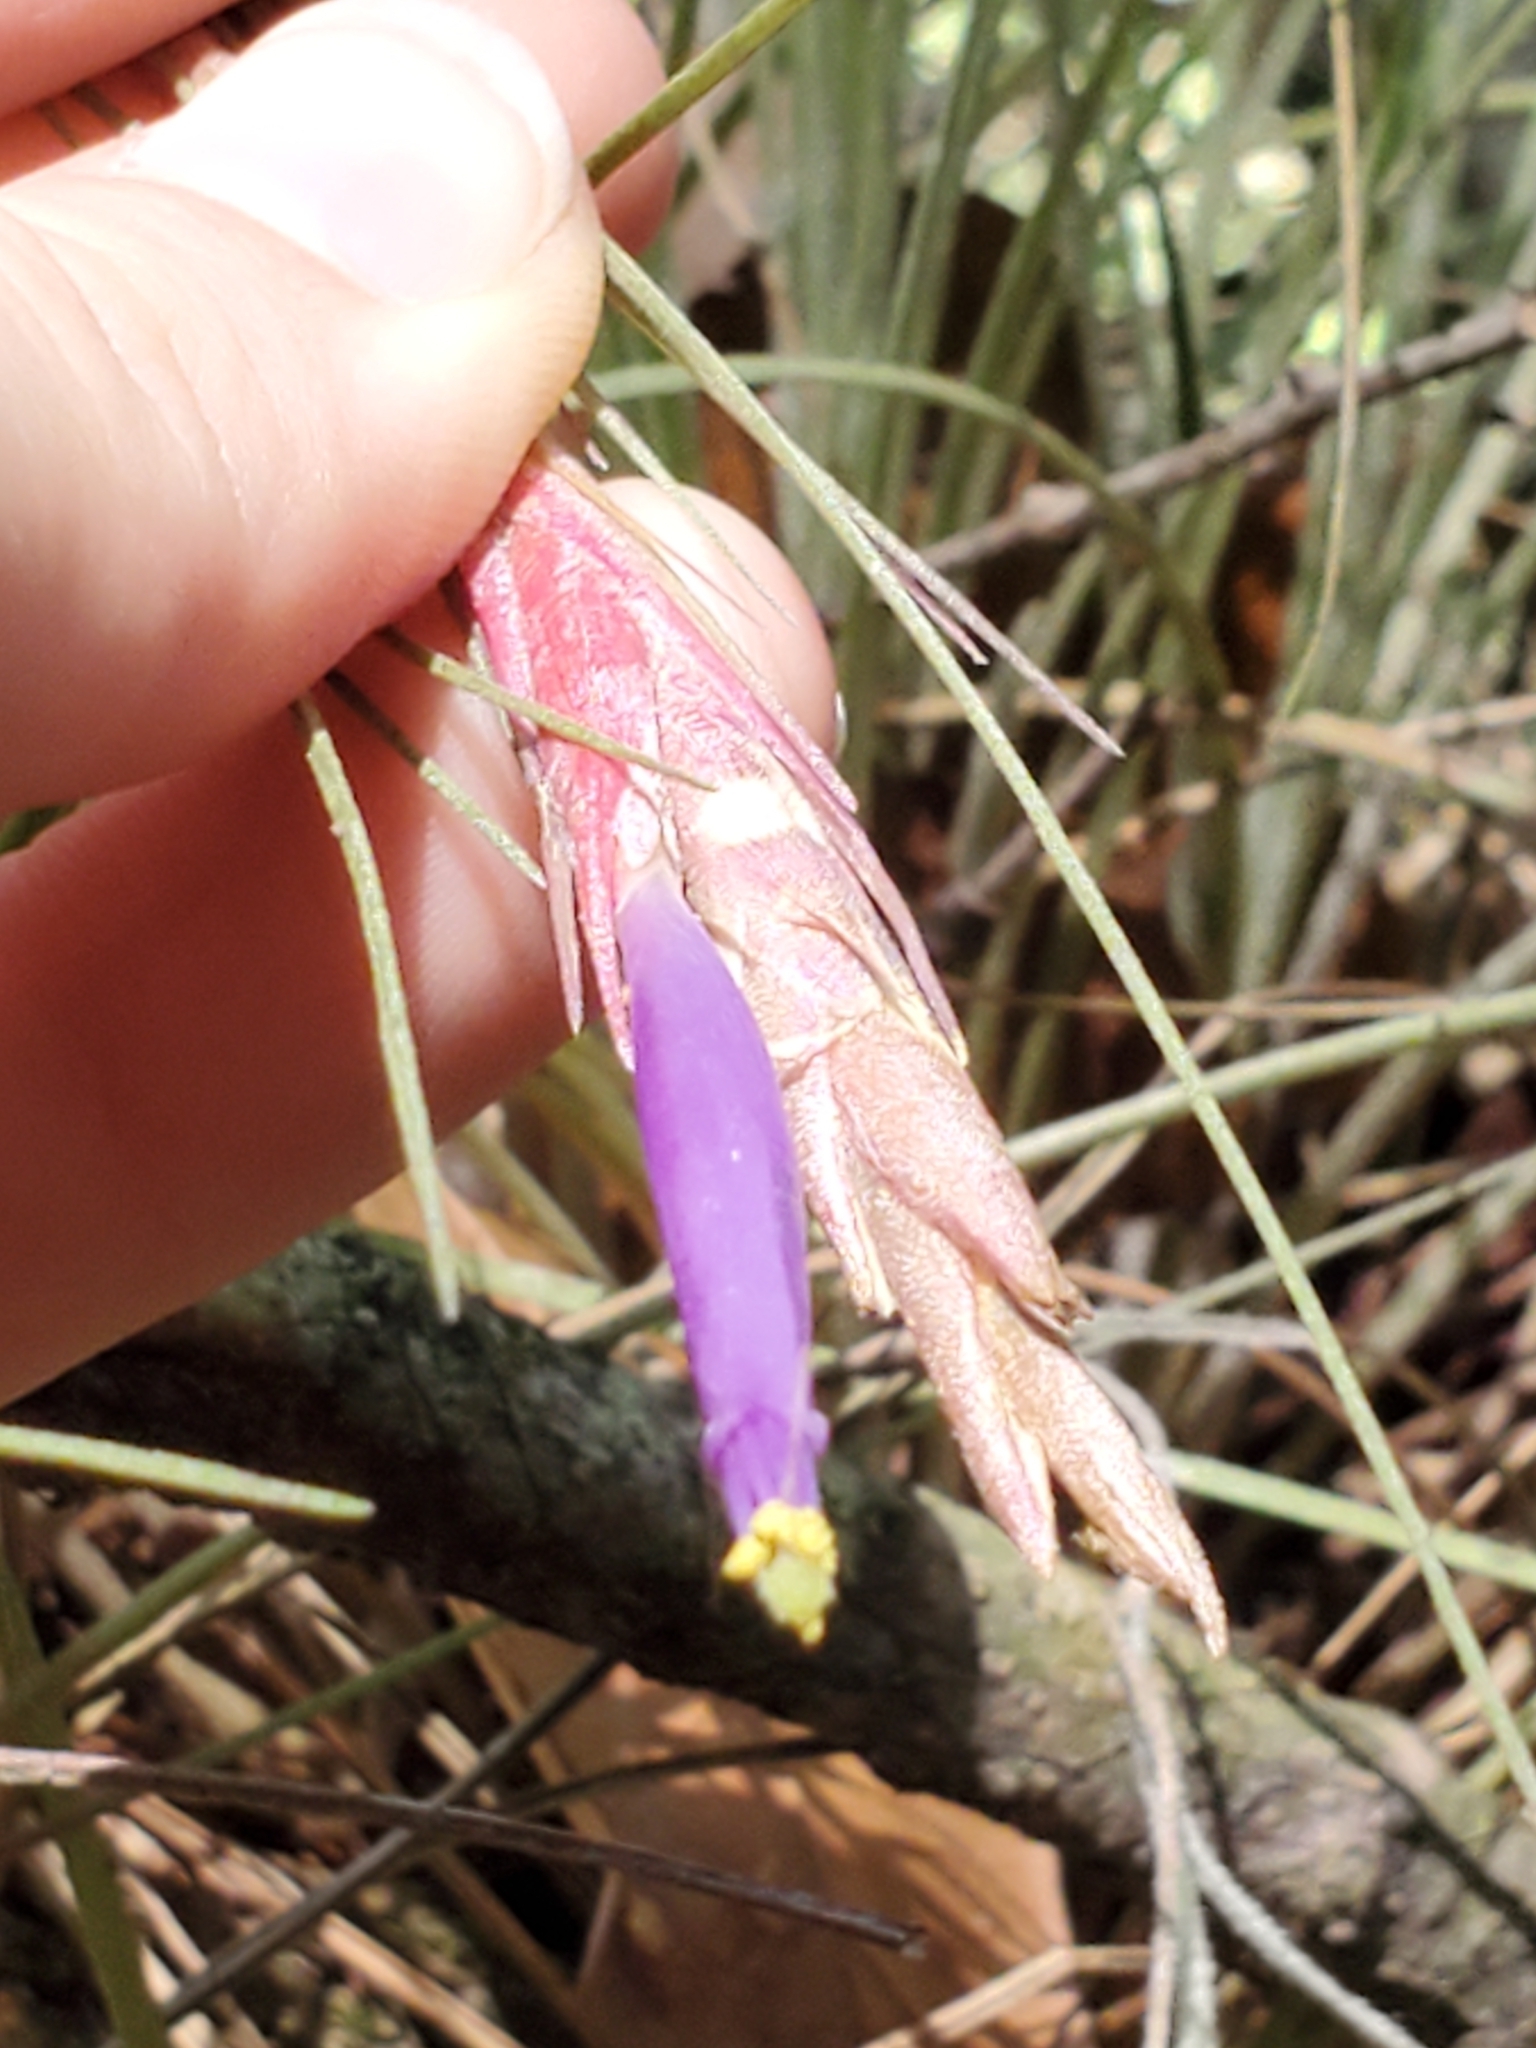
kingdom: Plantae
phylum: Tracheophyta
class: Liliopsida
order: Poales
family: Bromeliaceae
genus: Tillandsia
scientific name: Tillandsia bartramii
